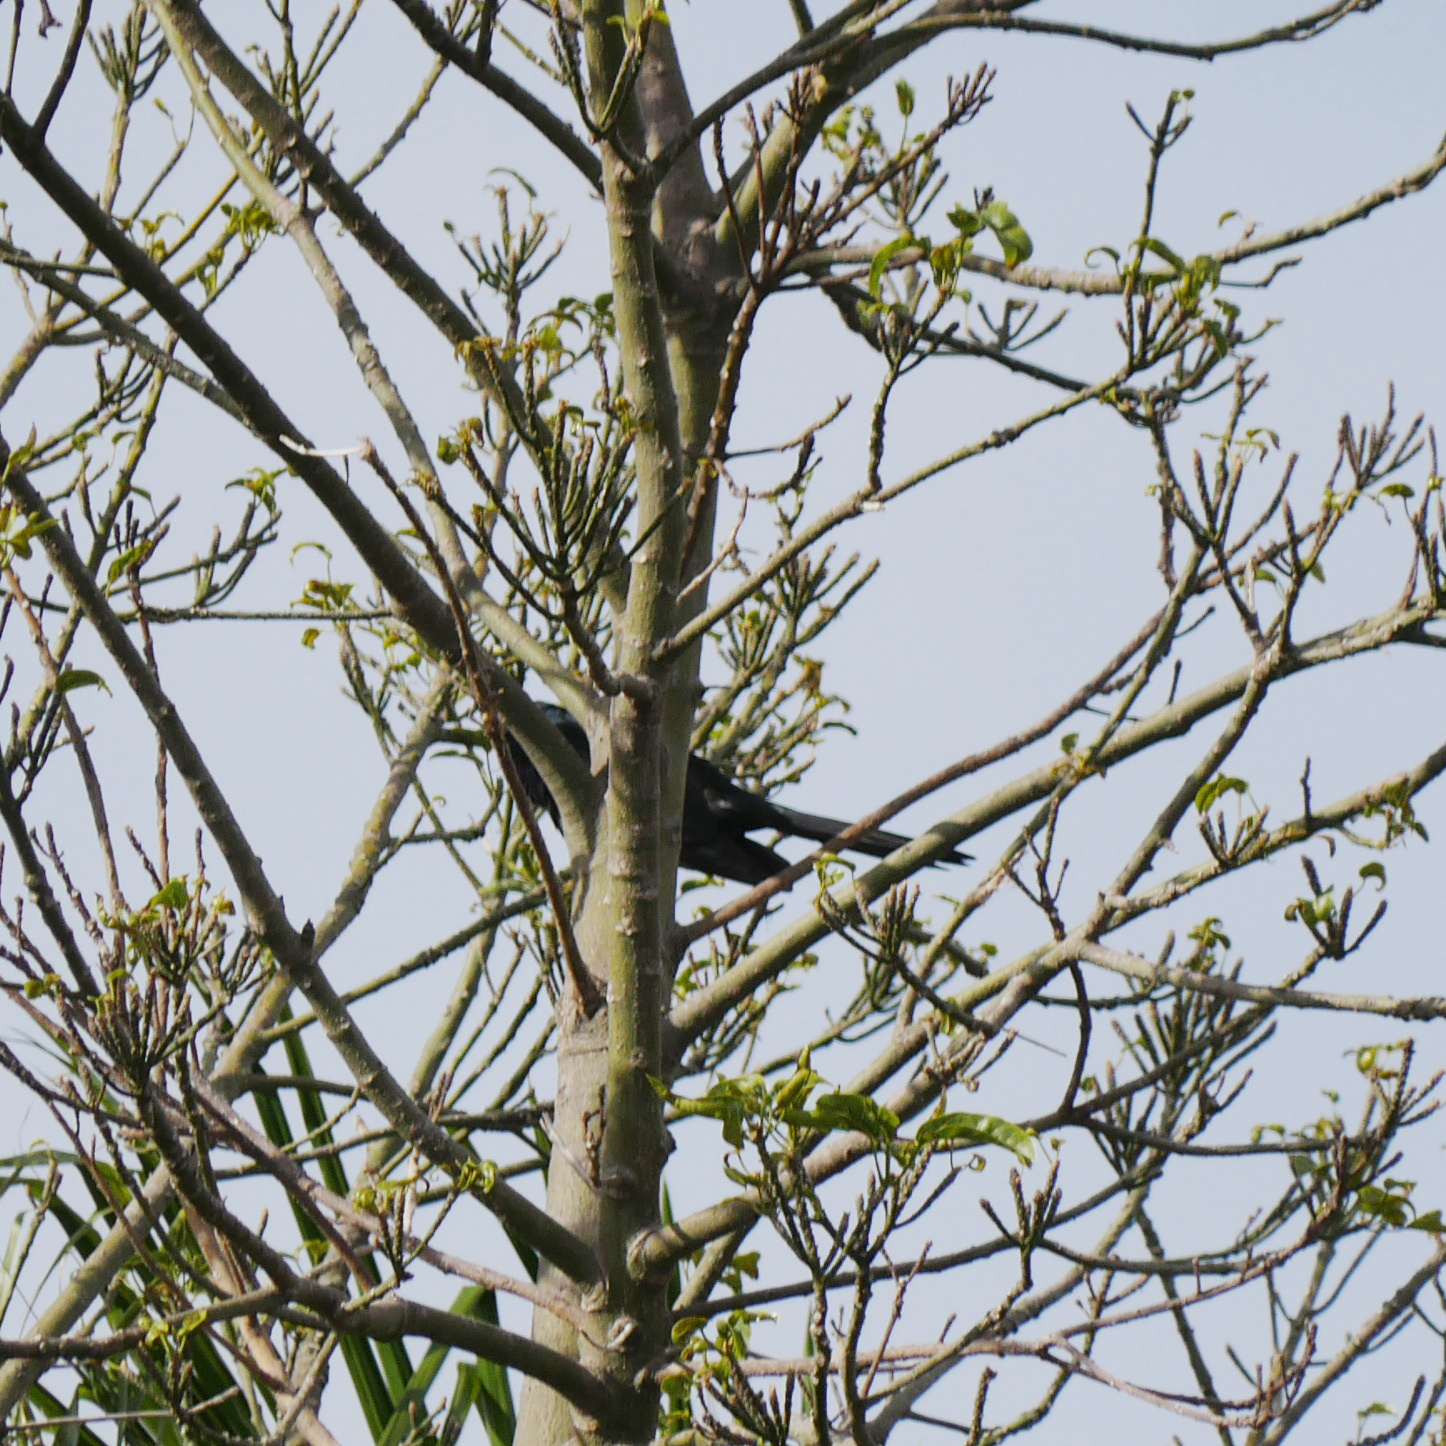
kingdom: Animalia
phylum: Chordata
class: Aves
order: Cuculiformes
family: Cuculidae
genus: Eudynamys
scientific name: Eudynamys orientalis
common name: Pacific koel
